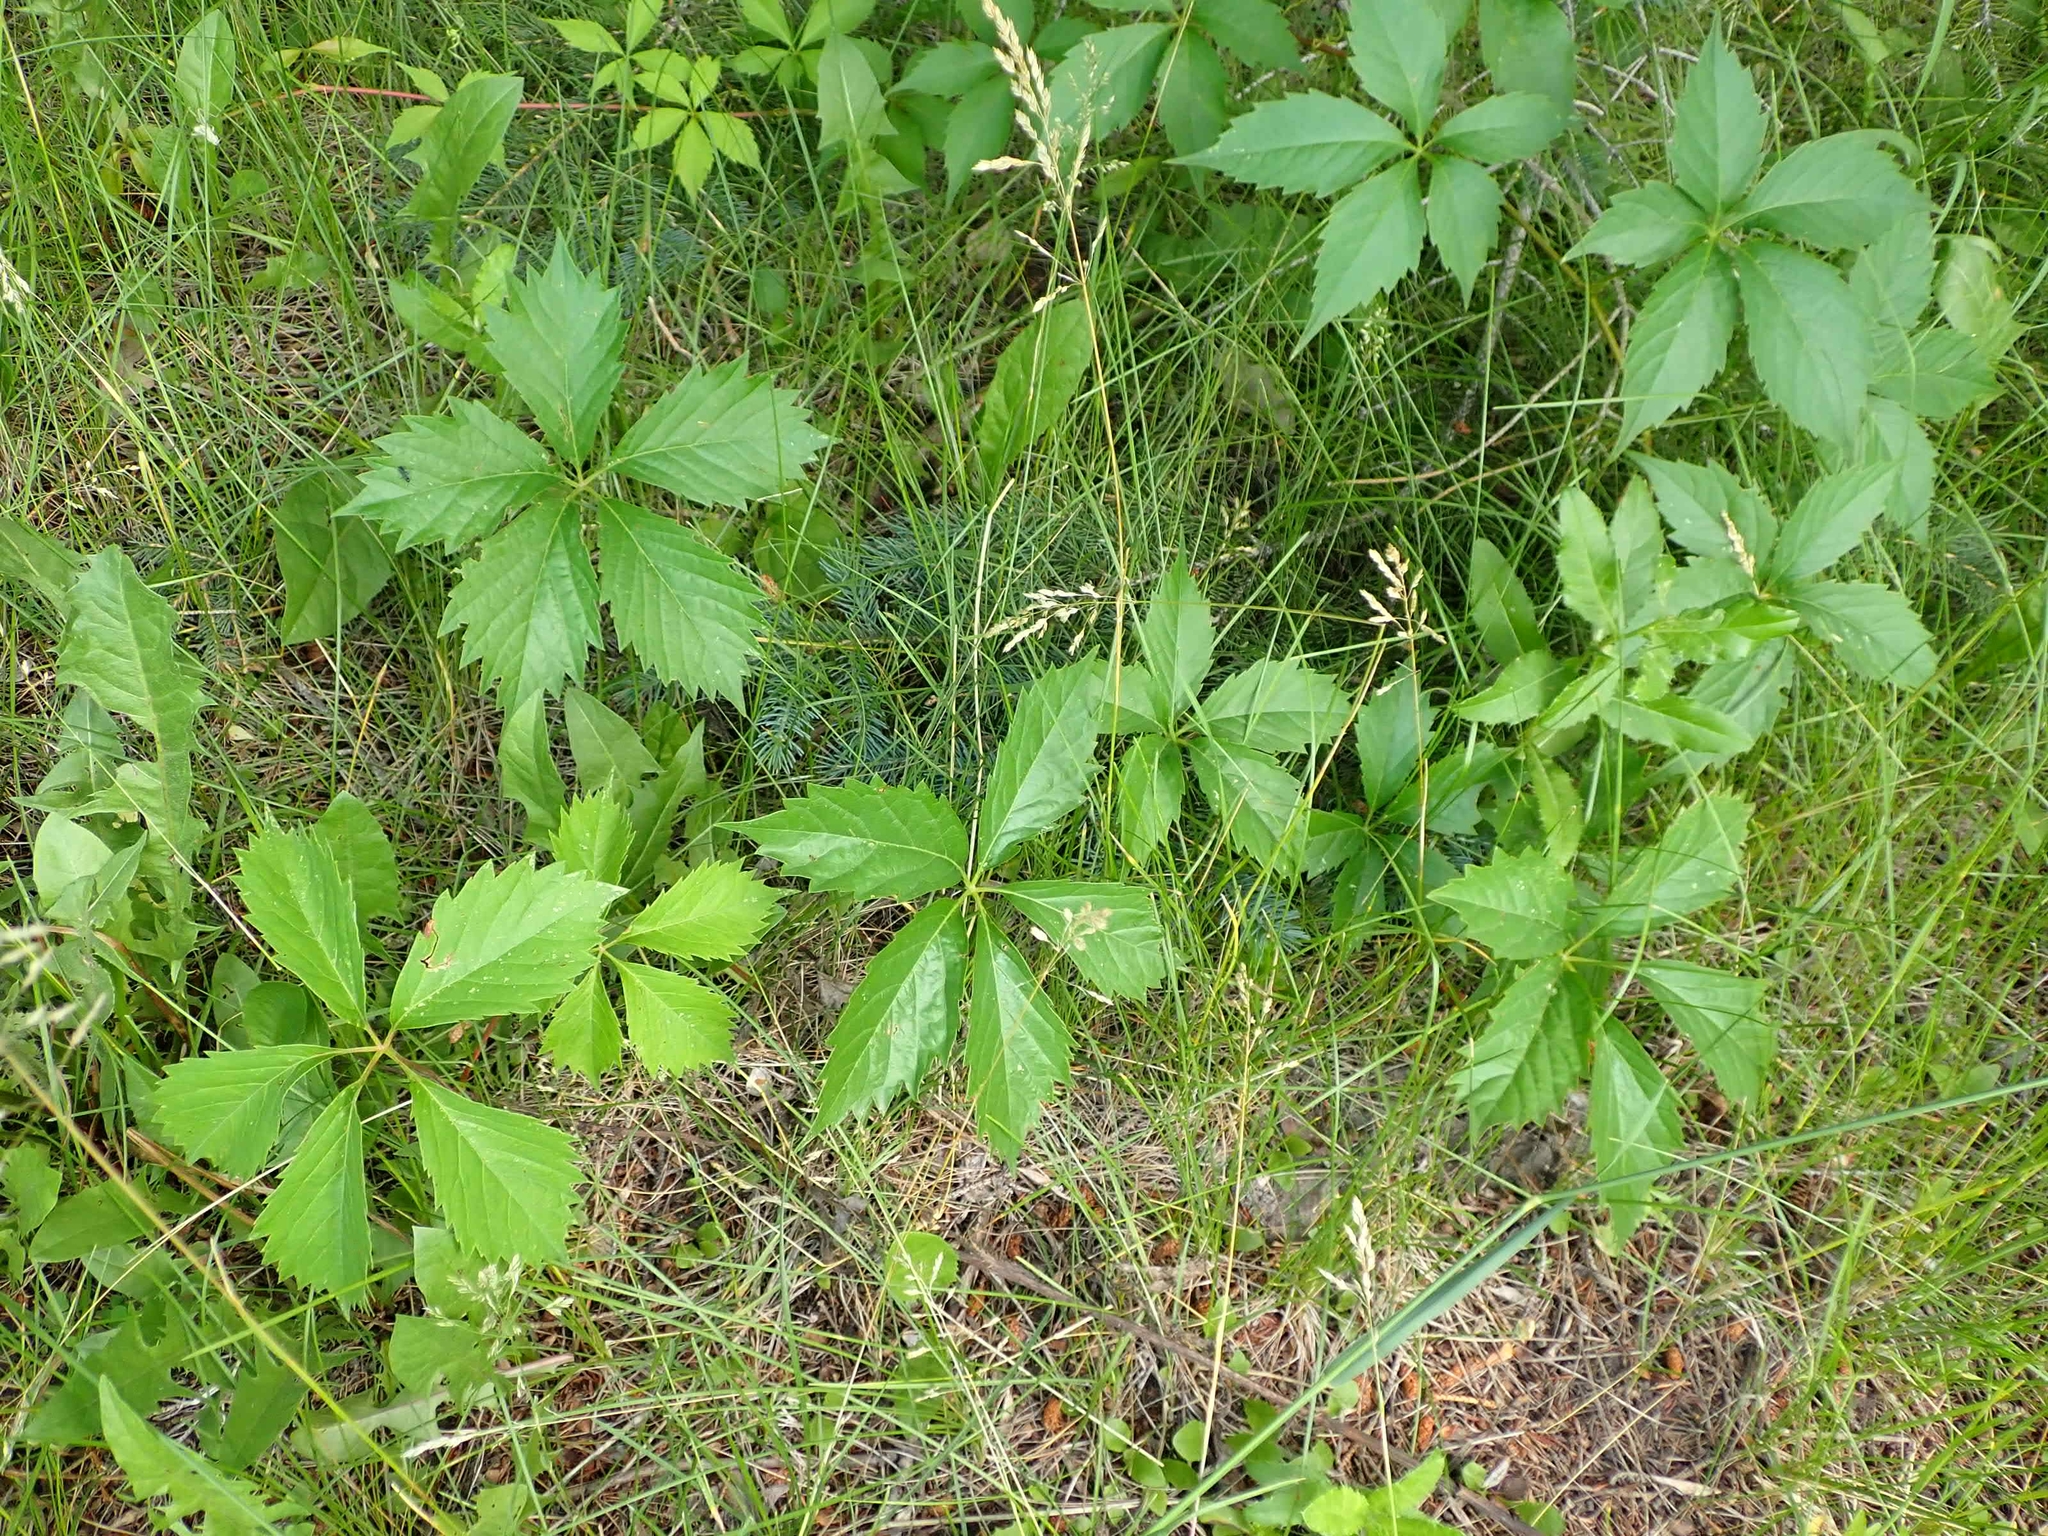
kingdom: Plantae
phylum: Tracheophyta
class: Magnoliopsida
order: Vitales
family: Vitaceae
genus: Parthenocissus
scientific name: Parthenocissus inserta
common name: False virginia-creeper
